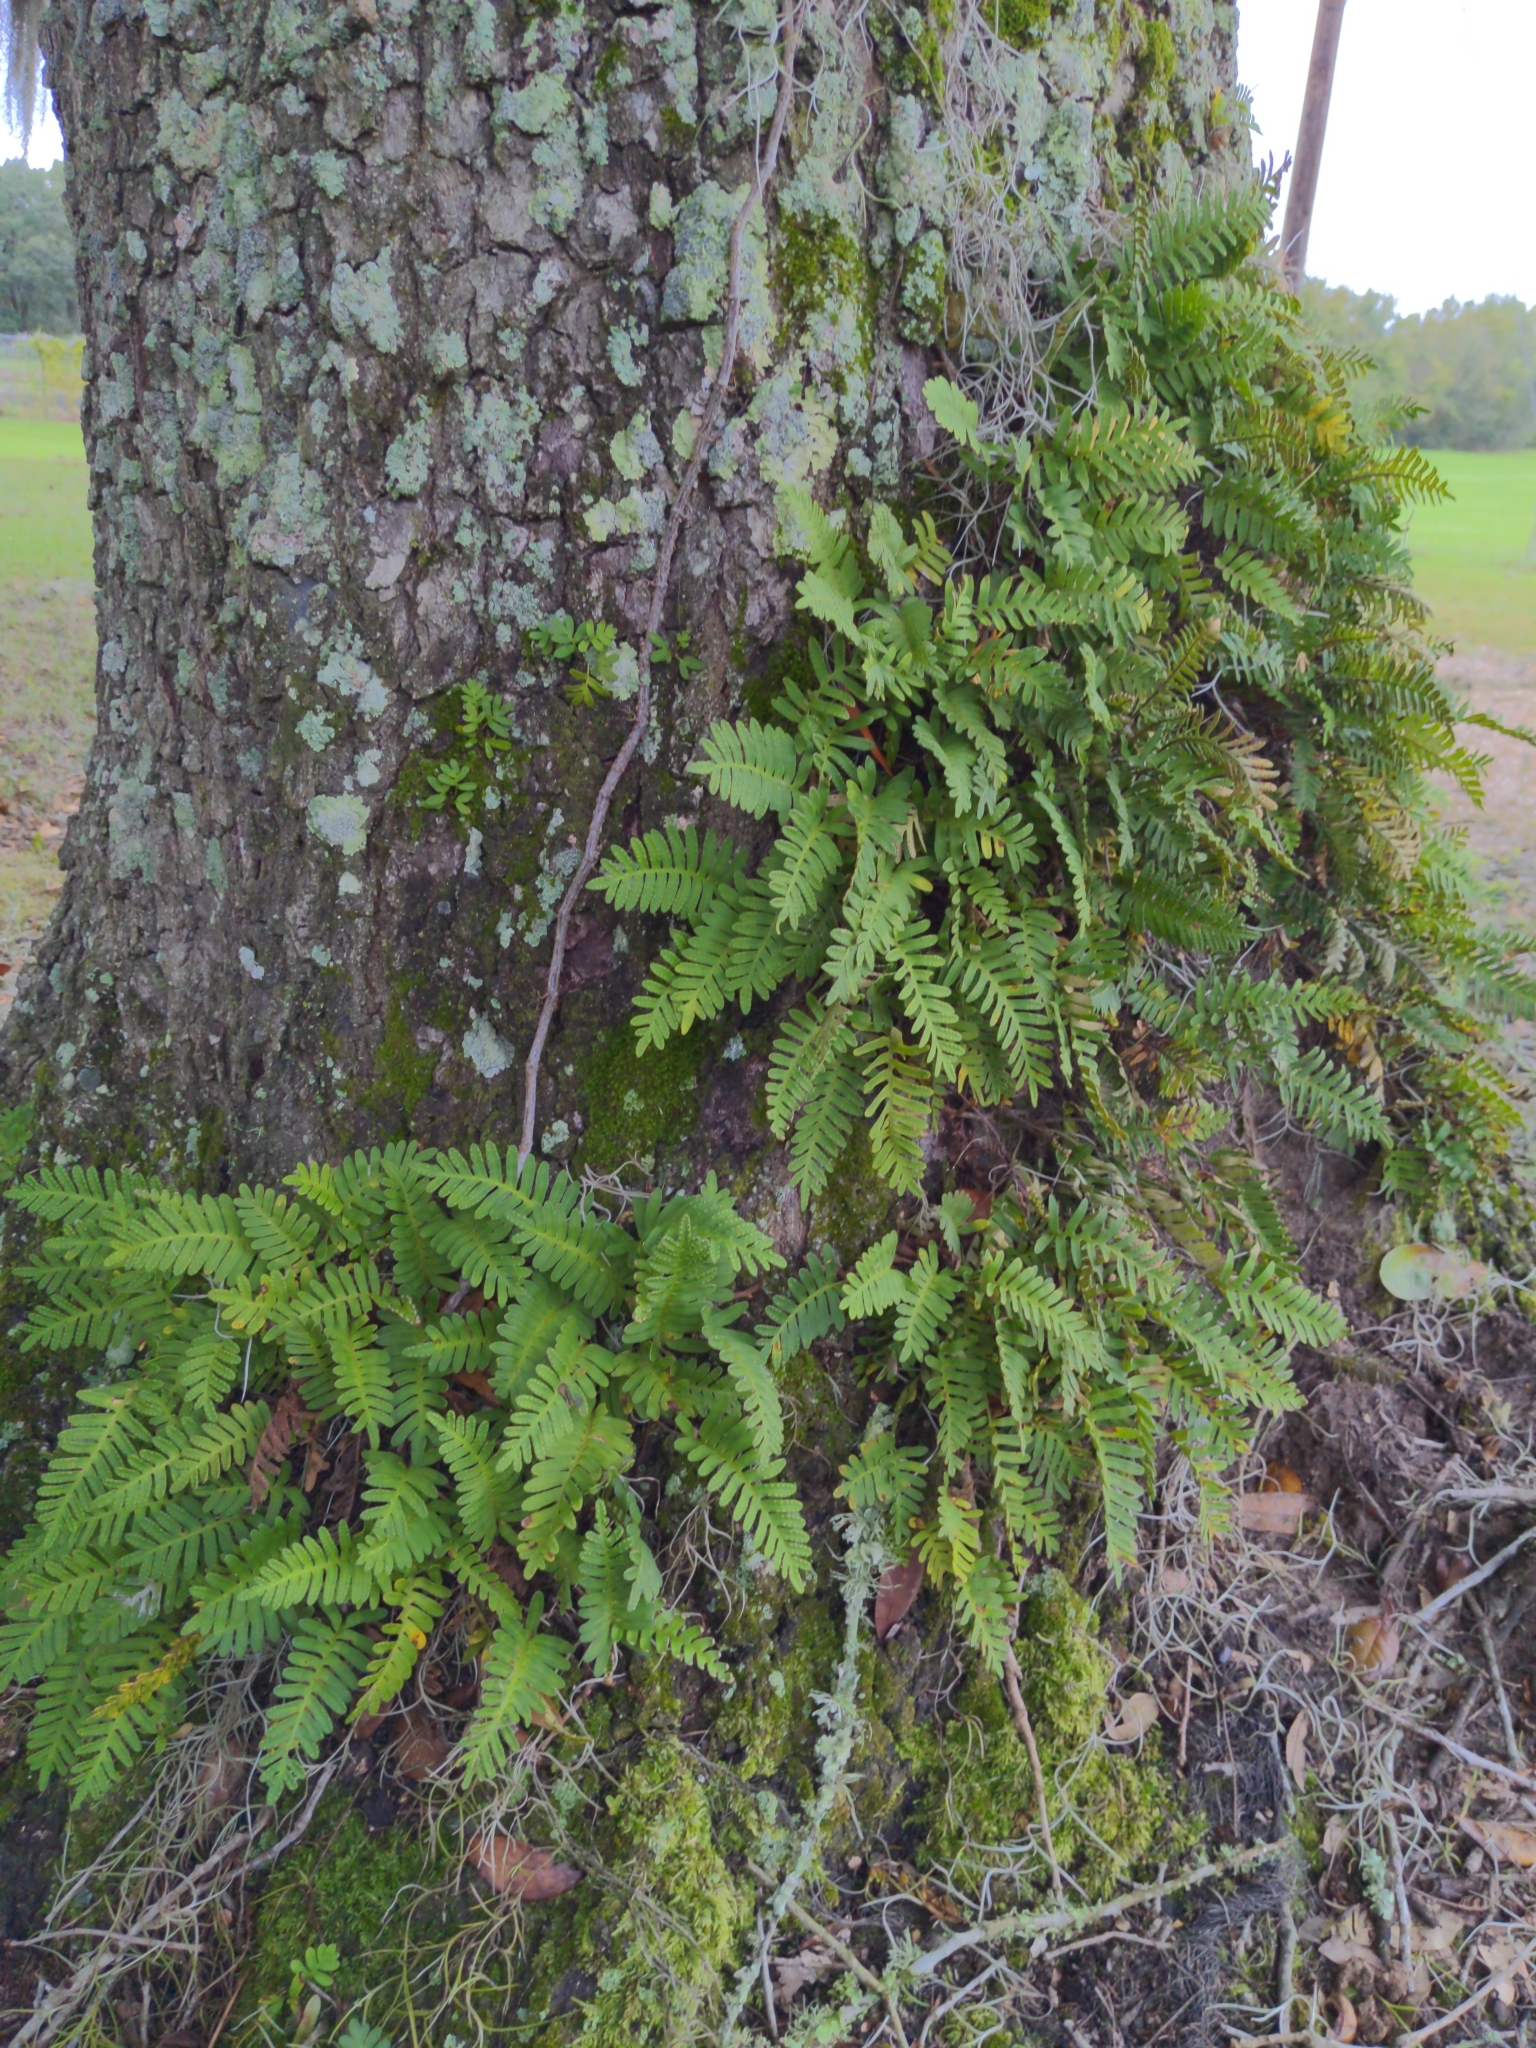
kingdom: Plantae
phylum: Tracheophyta
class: Polypodiopsida
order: Polypodiales
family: Polypodiaceae
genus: Pleopeltis
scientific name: Pleopeltis michauxiana
